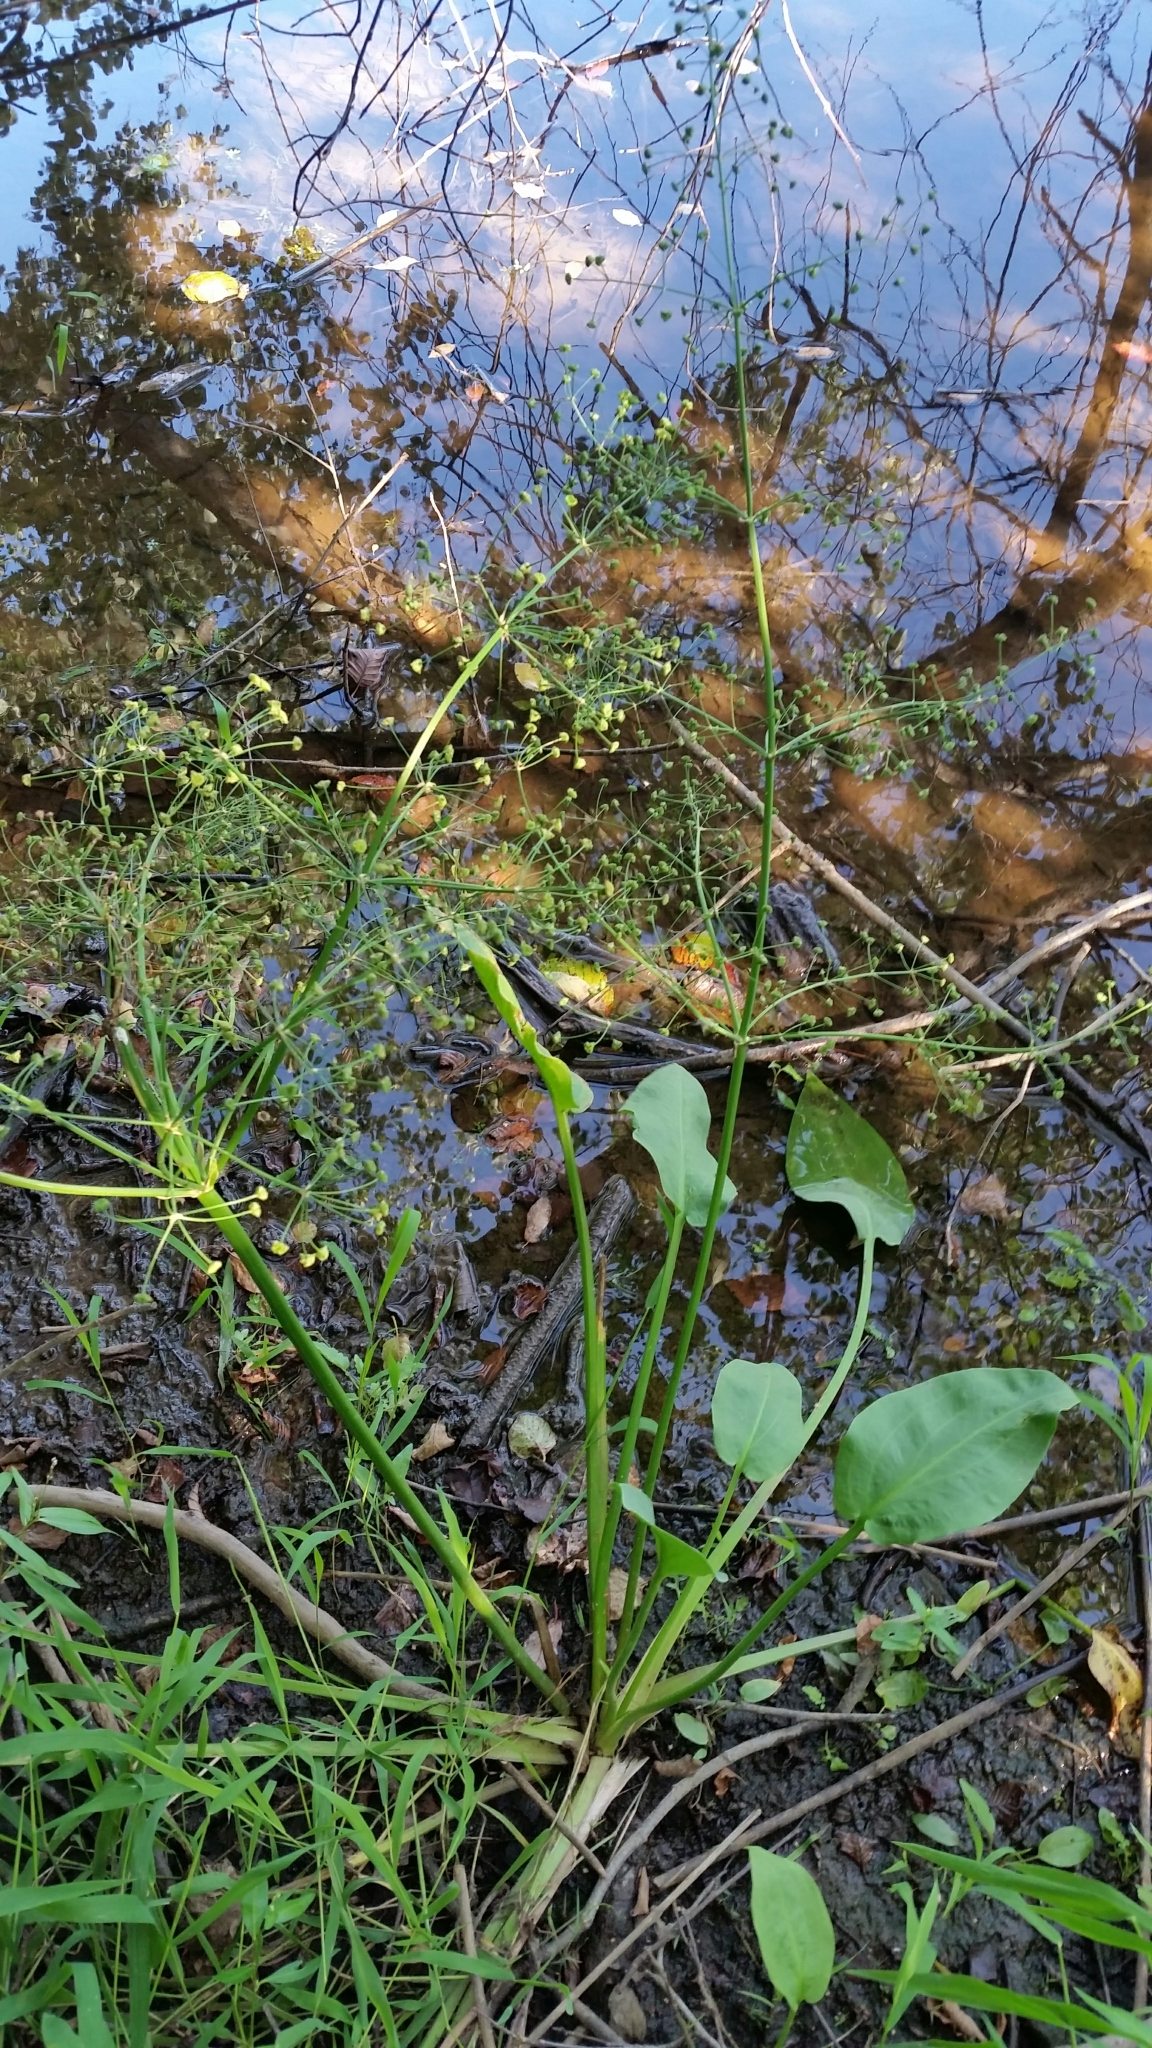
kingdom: Plantae
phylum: Tracheophyta
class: Liliopsida
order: Alismatales
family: Alismataceae
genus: Alisma
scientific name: Alisma plantago-aquatica
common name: Water-plantain
